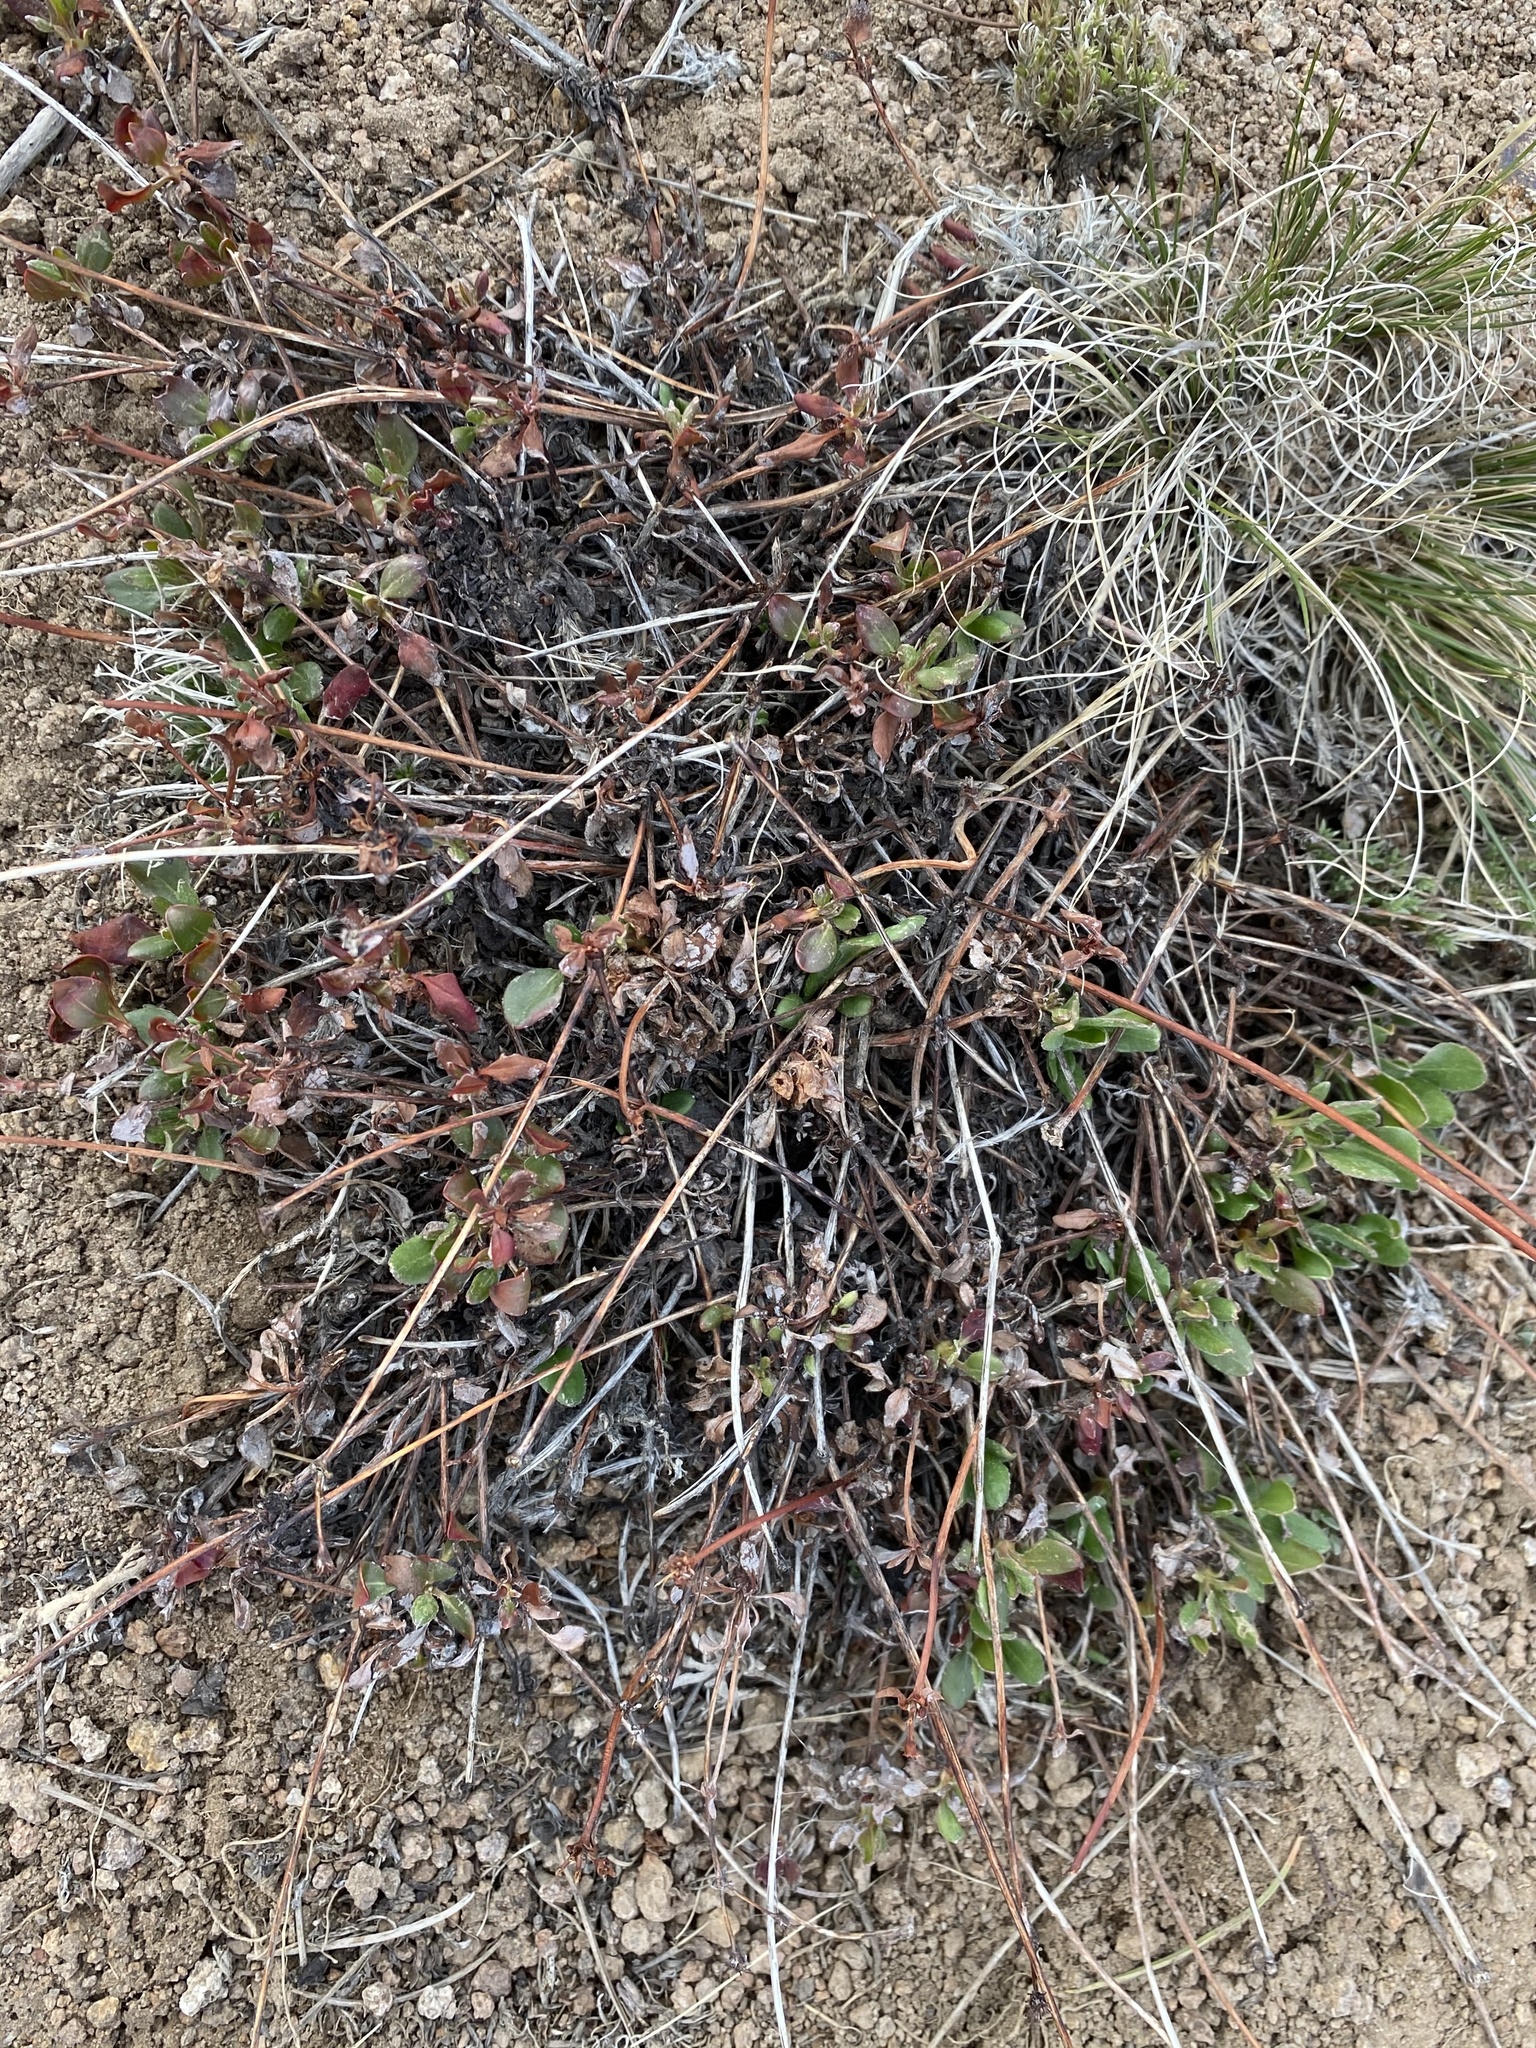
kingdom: Plantae
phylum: Tracheophyta
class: Magnoliopsida
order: Caryophyllales
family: Polygonaceae
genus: Eriogonum
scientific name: Eriogonum umbellatum
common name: Sulfur-buckwheat
